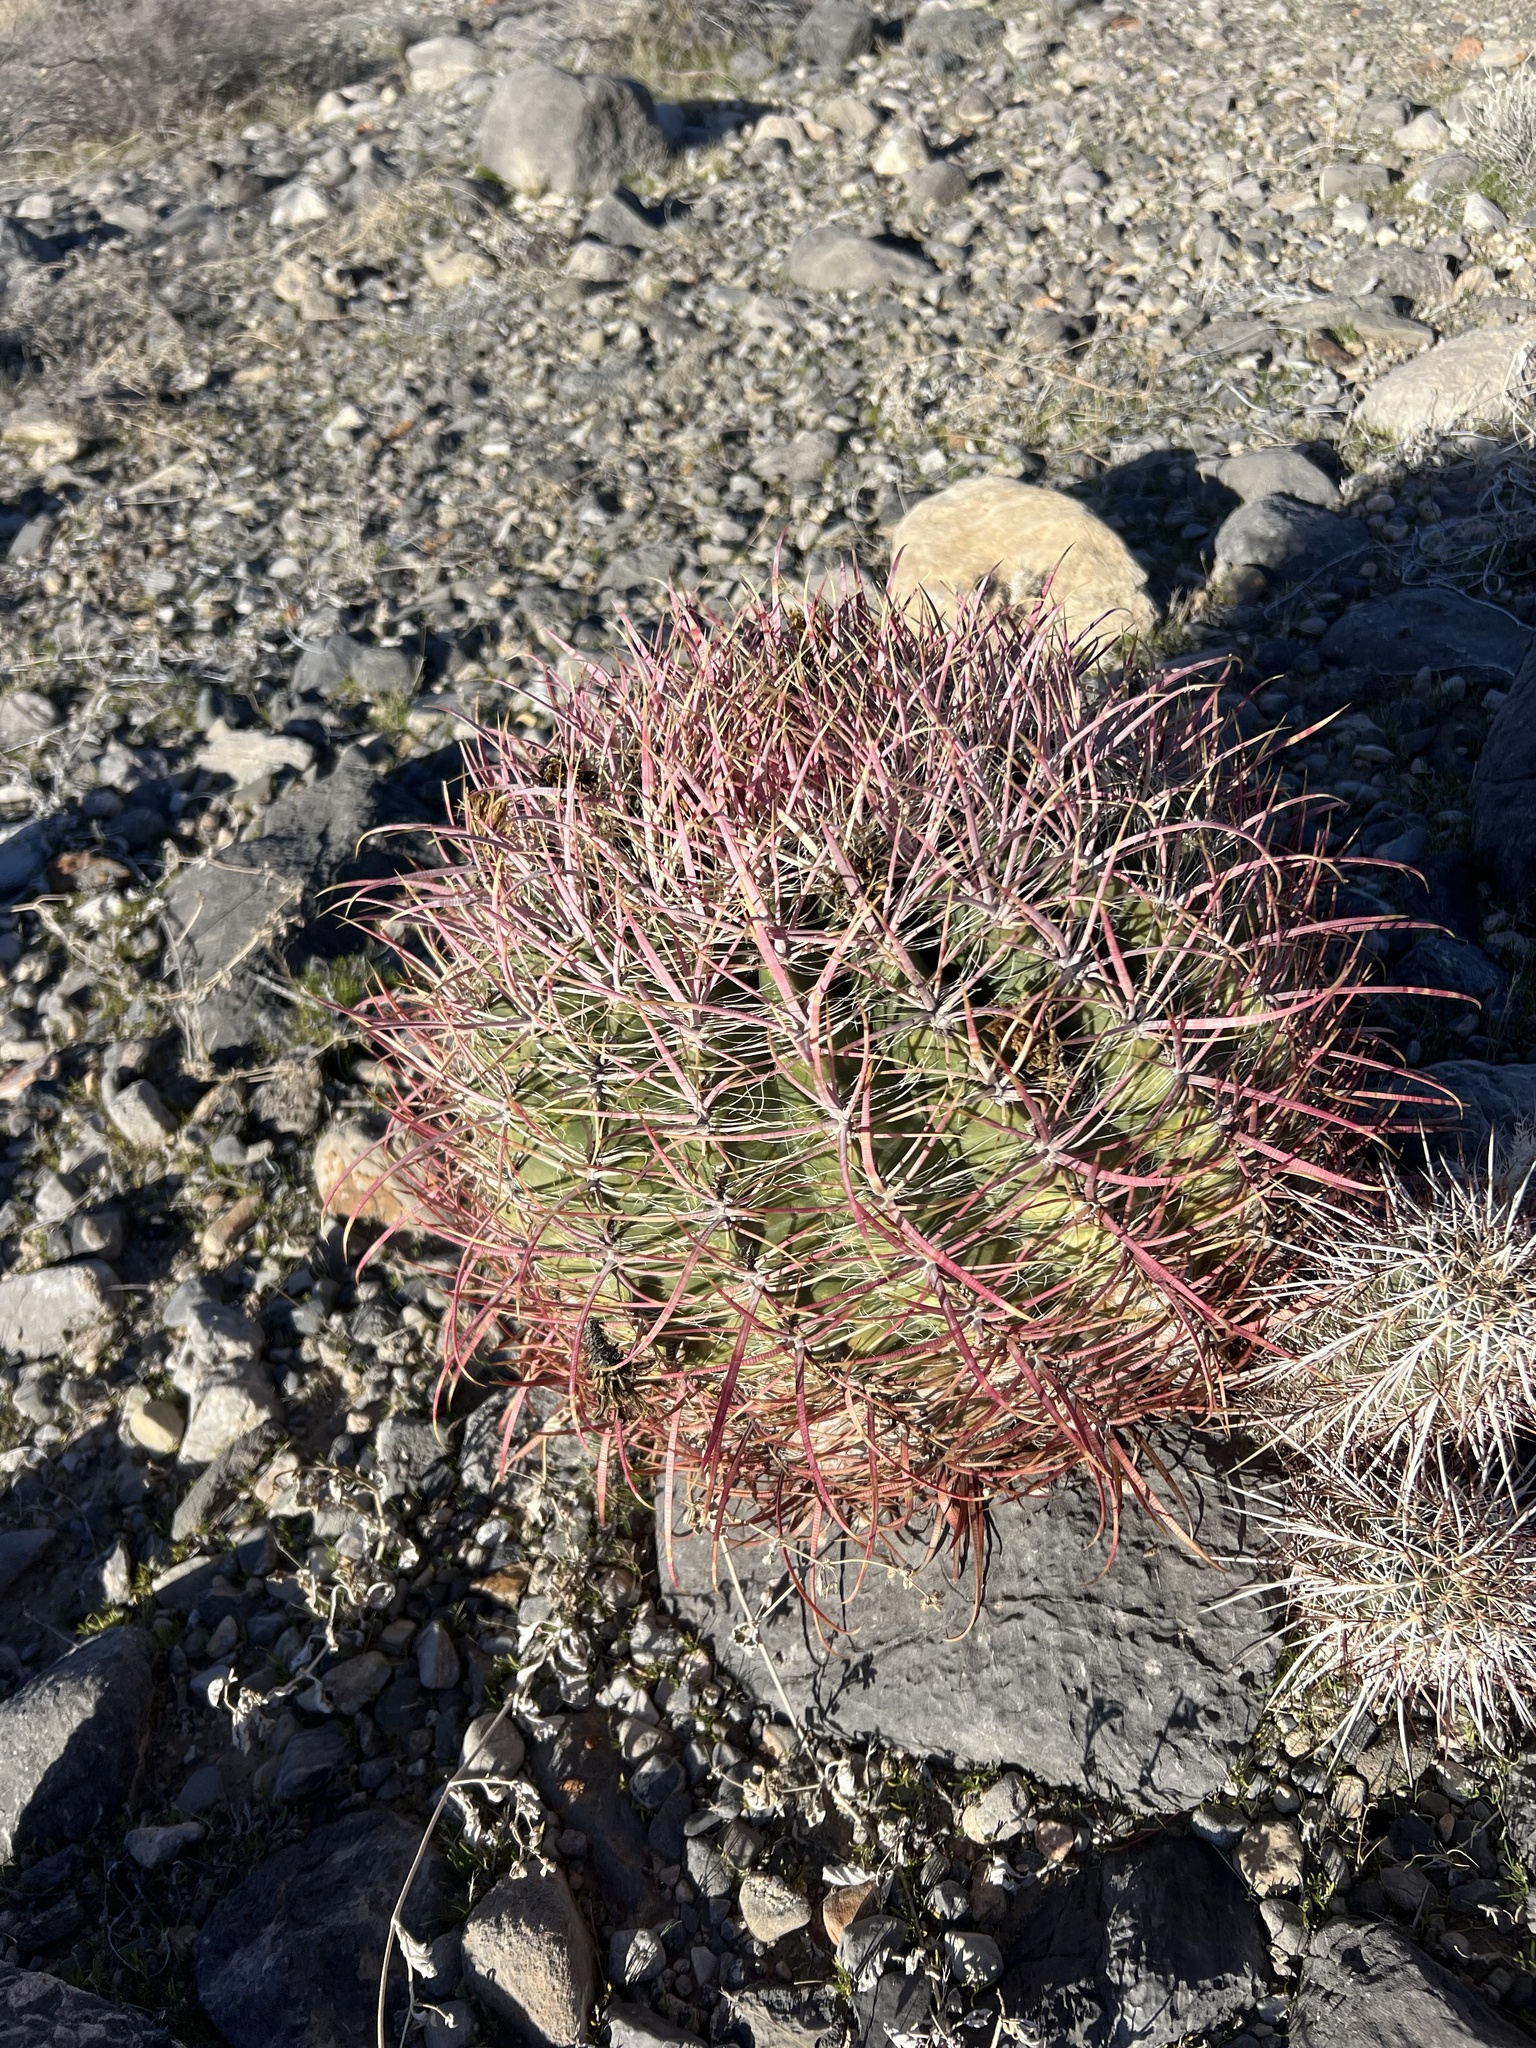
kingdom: Plantae
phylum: Tracheophyta
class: Magnoliopsida
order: Caryophyllales
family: Cactaceae
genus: Ferocactus
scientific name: Ferocactus cylindraceus
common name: California barrel cactus
